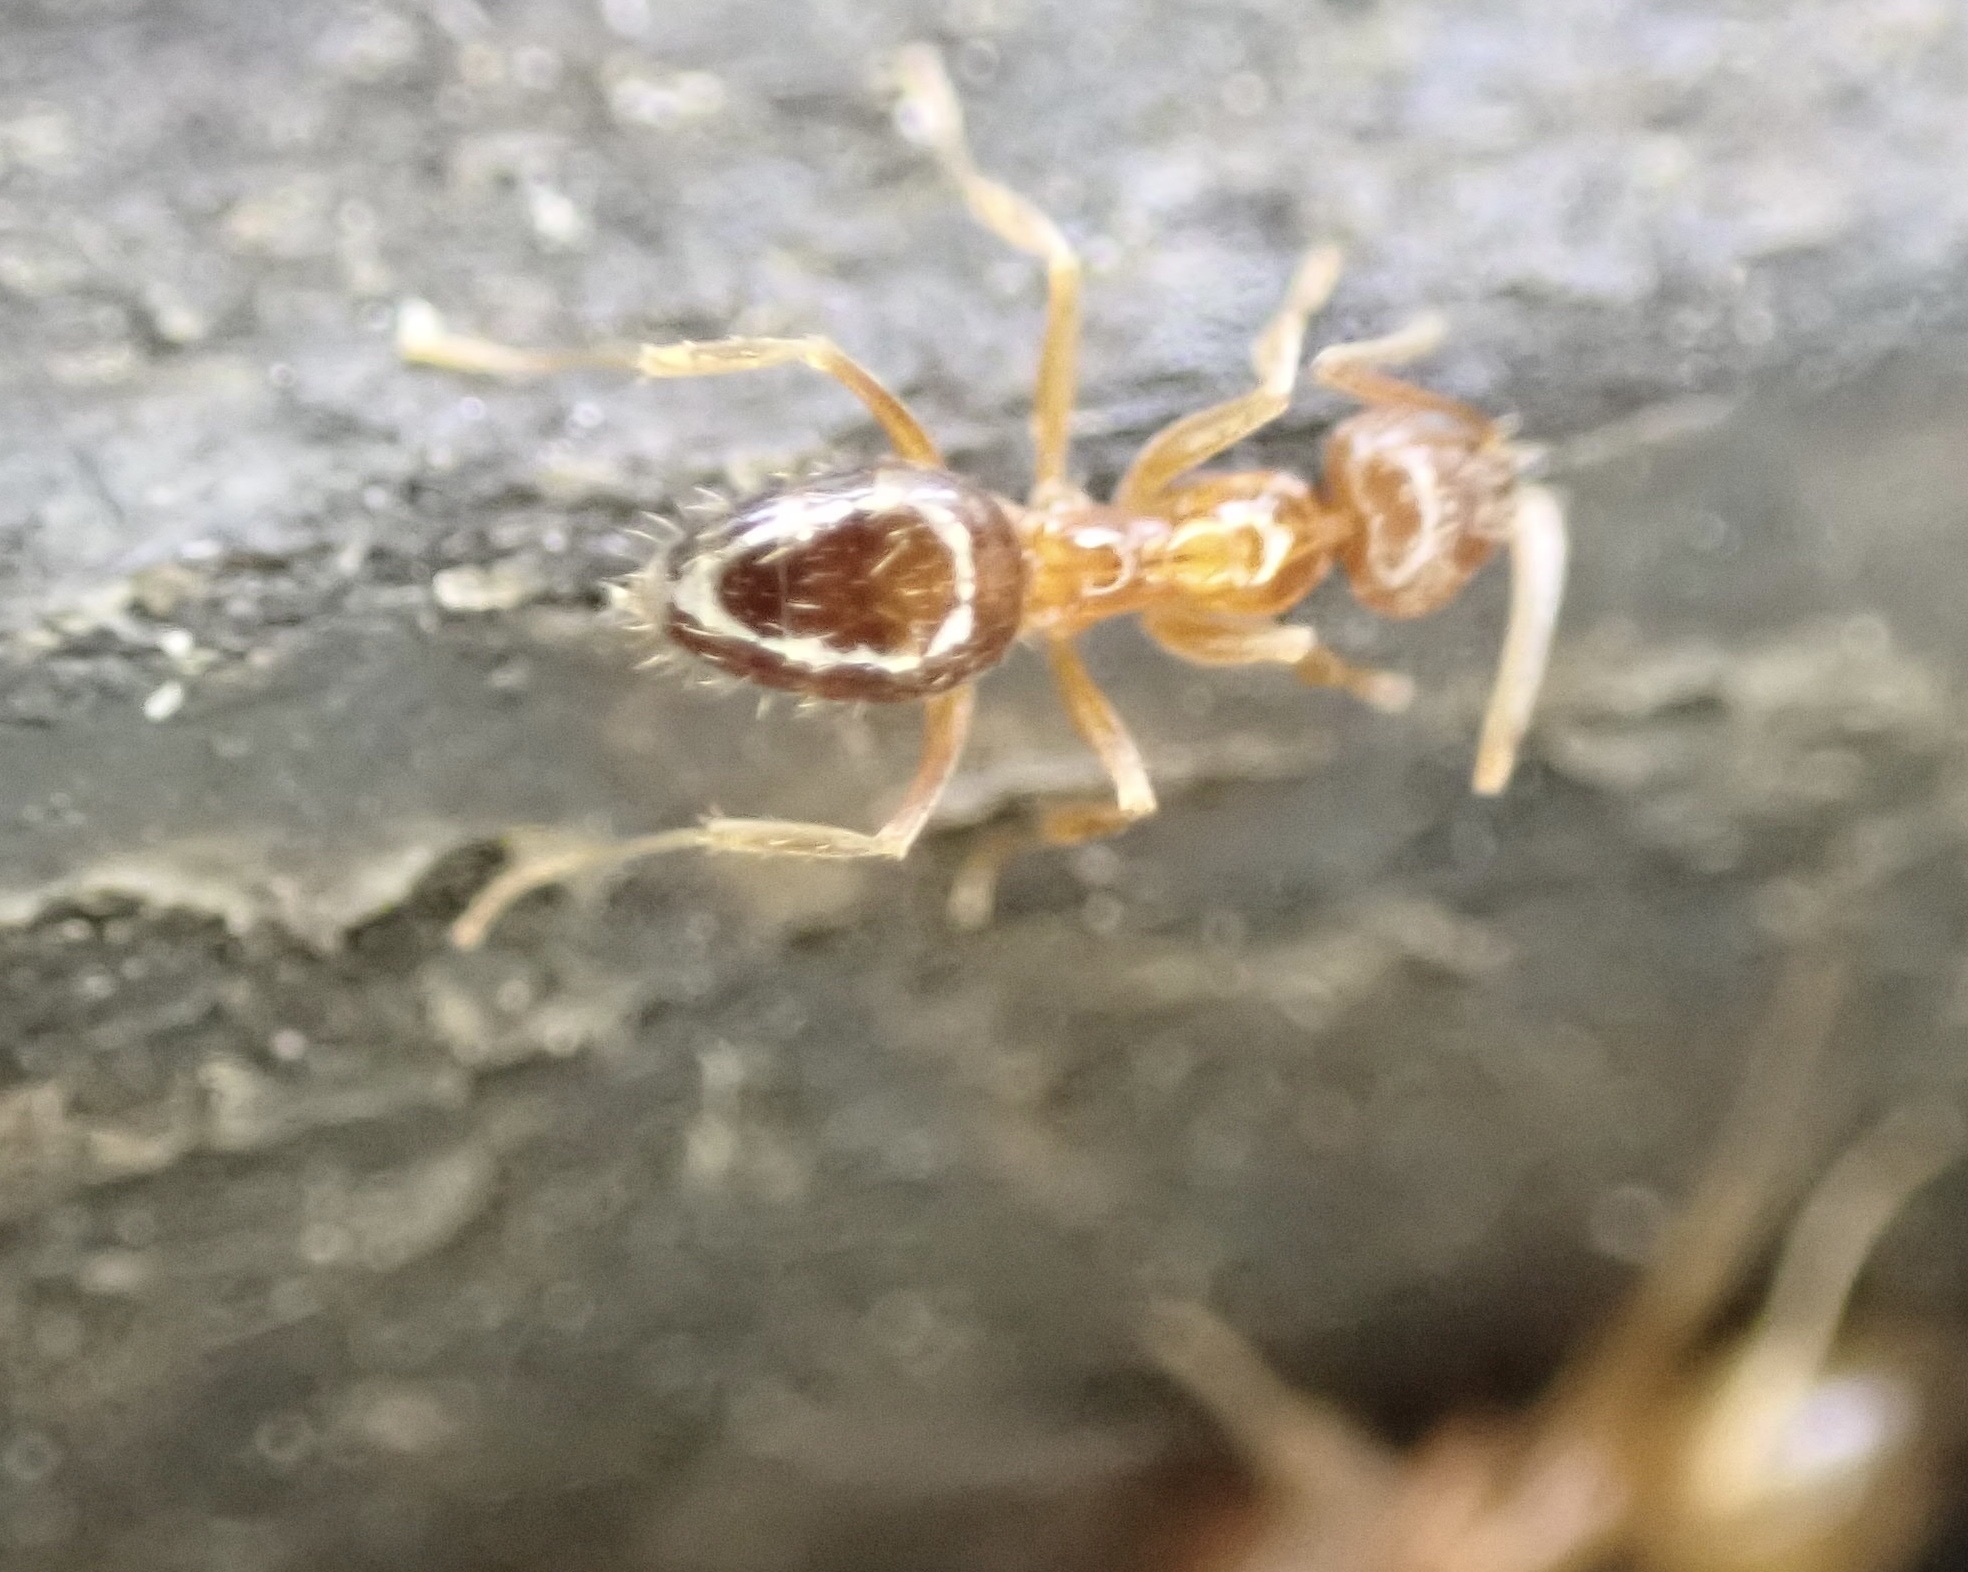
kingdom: Animalia
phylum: Arthropoda
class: Insecta
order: Hymenoptera
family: Formicidae
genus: Paratrechina
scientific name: Paratrechina flavipes
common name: Eastern asian formicine ant
